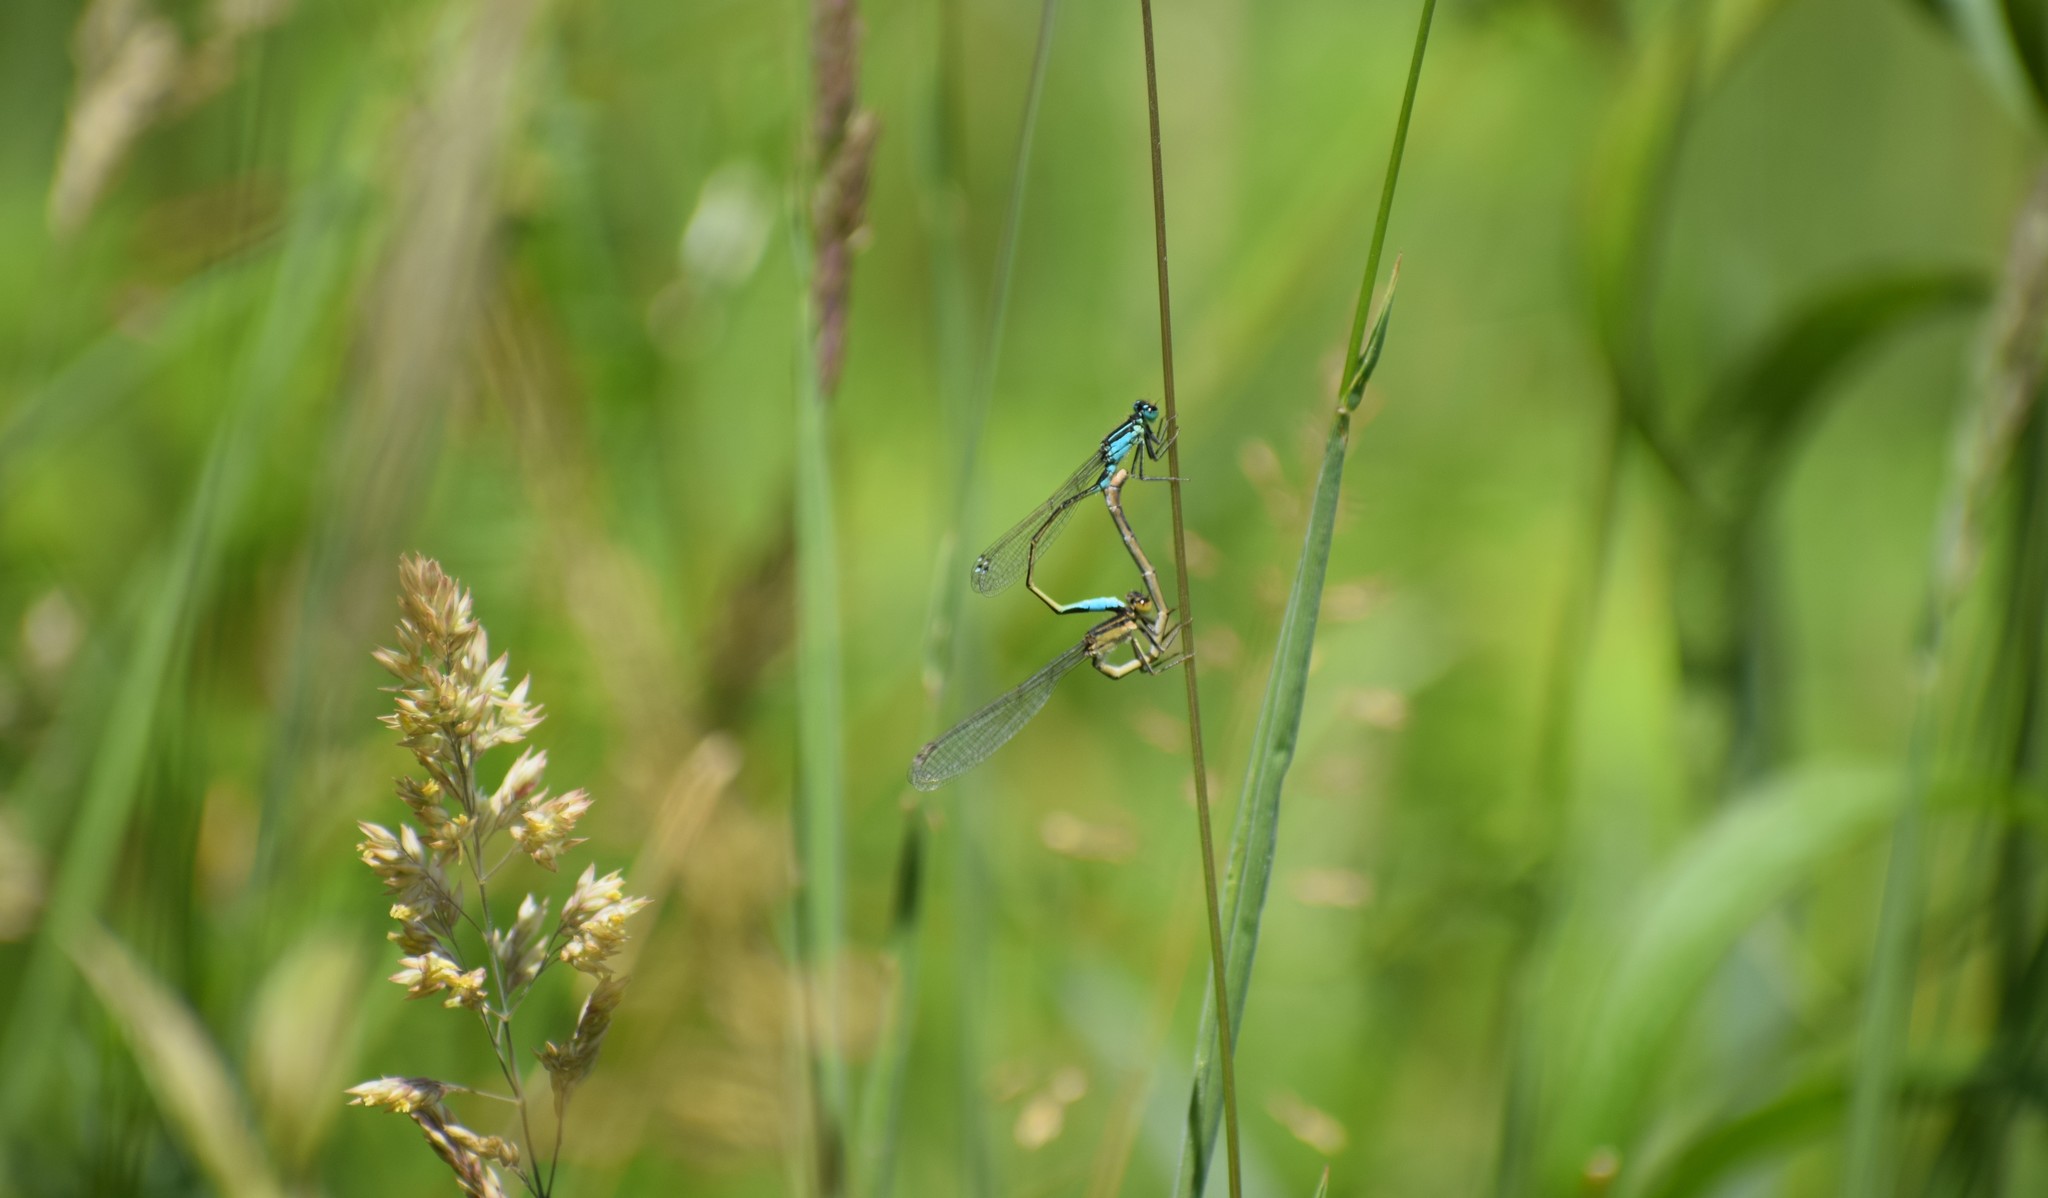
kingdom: Animalia
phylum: Arthropoda
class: Insecta
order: Odonata
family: Coenagrionidae
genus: Ischnura
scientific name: Ischnura elegans
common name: Blue-tailed damselfly
